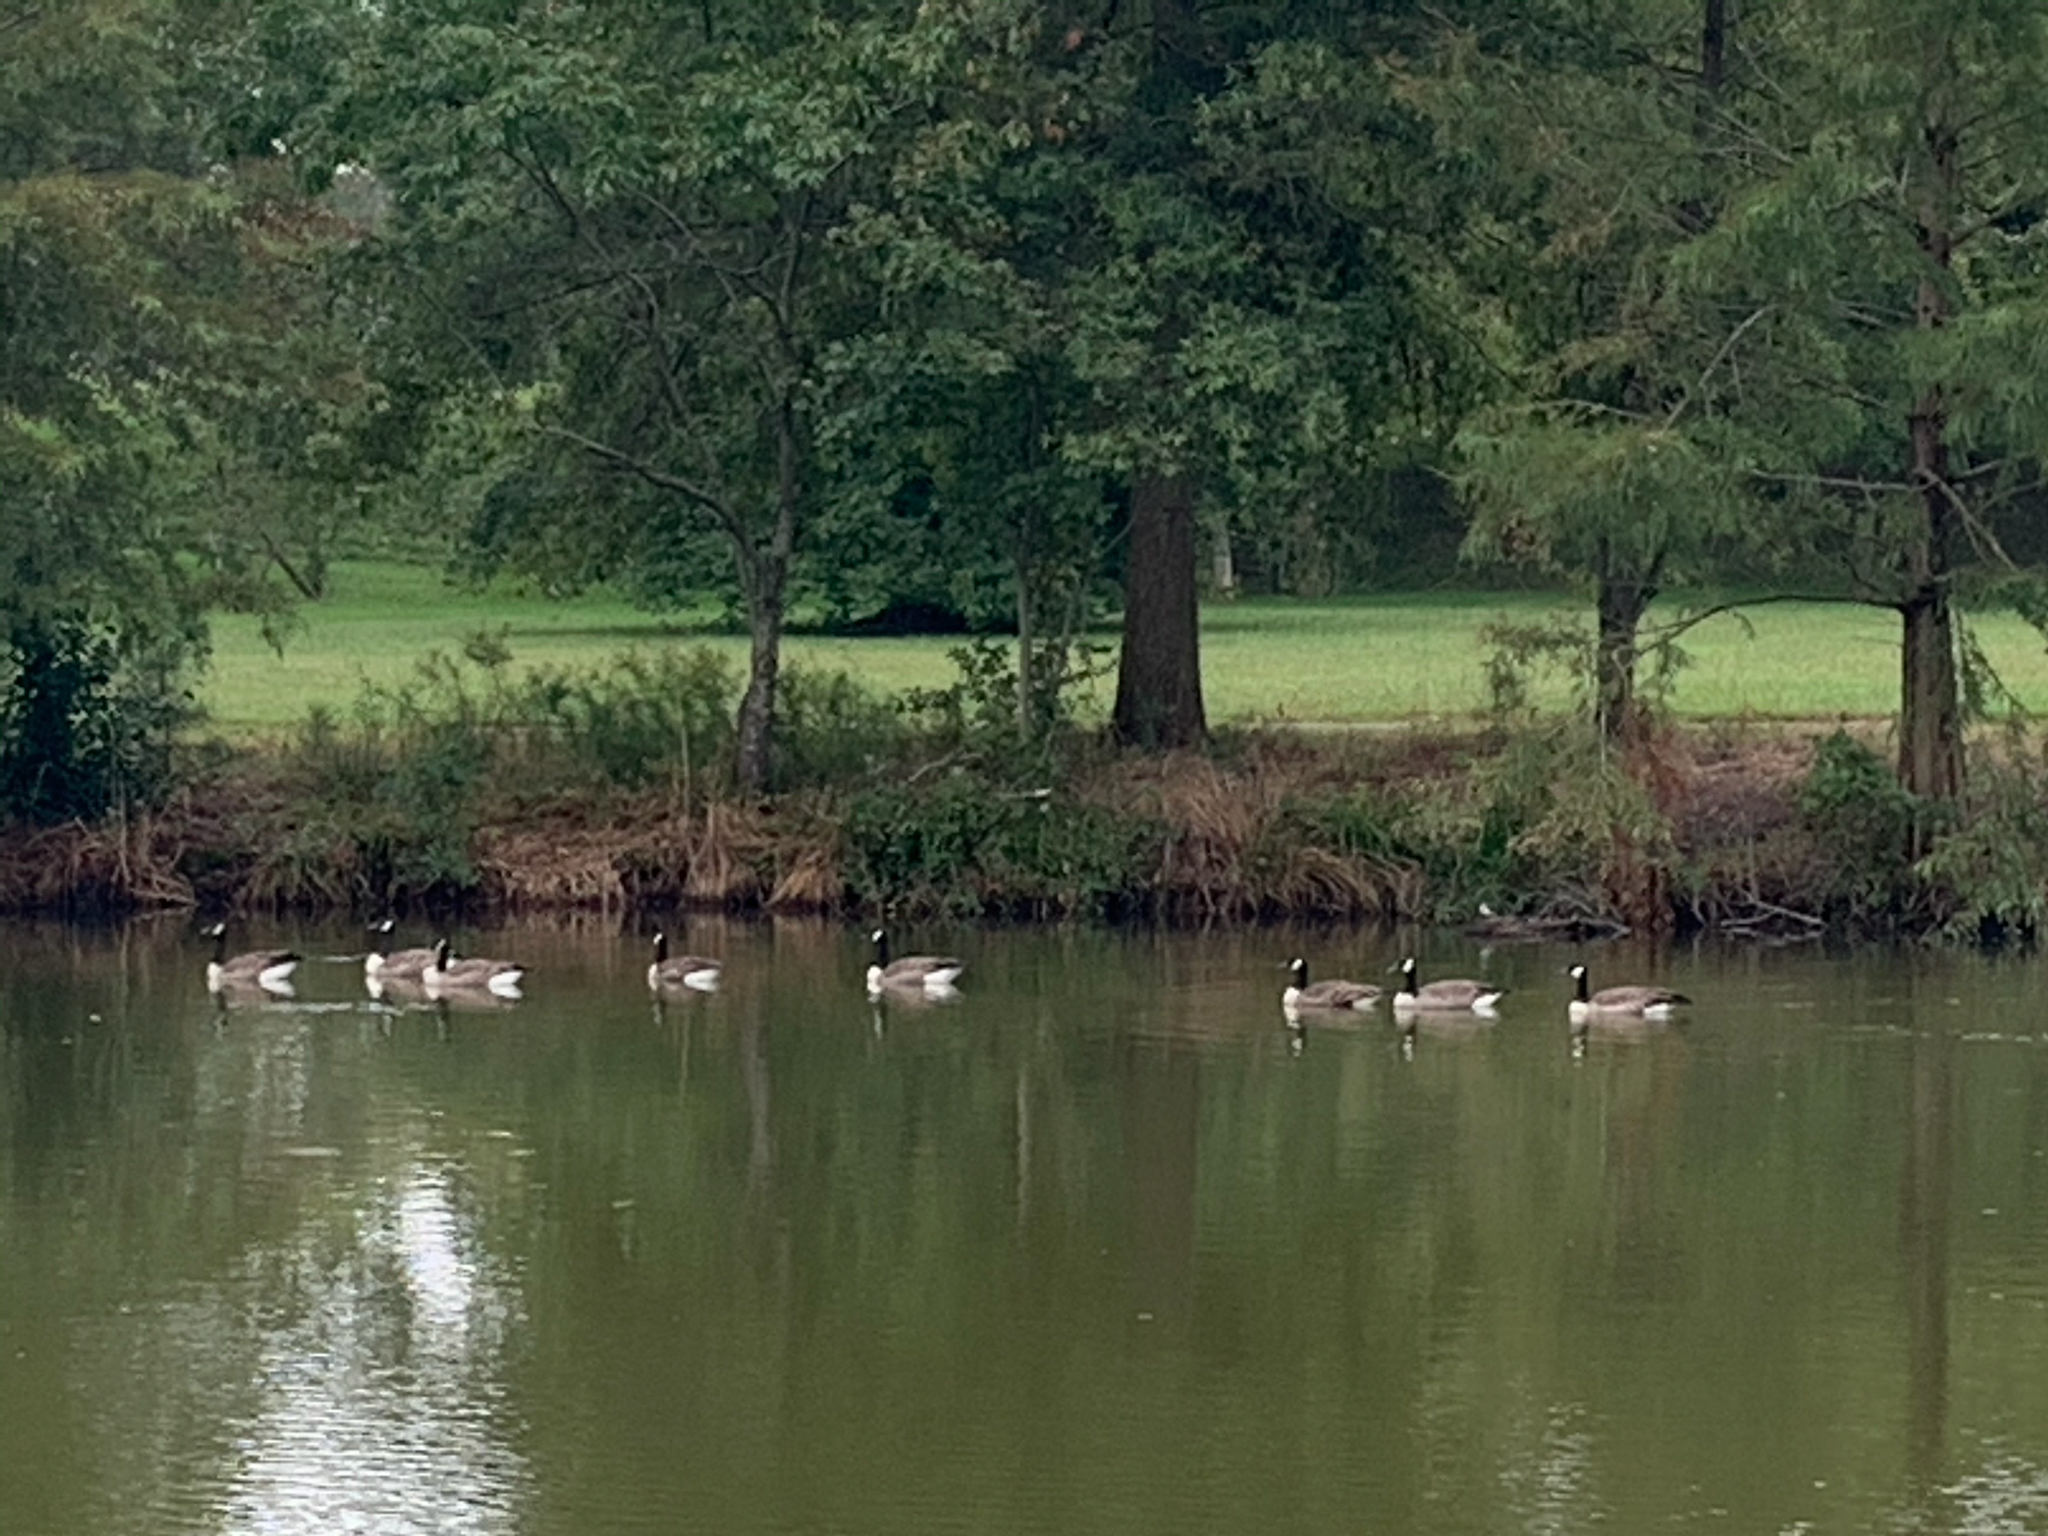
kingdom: Animalia
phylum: Chordata
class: Aves
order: Anseriformes
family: Anatidae
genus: Branta
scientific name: Branta canadensis
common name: Canada goose
